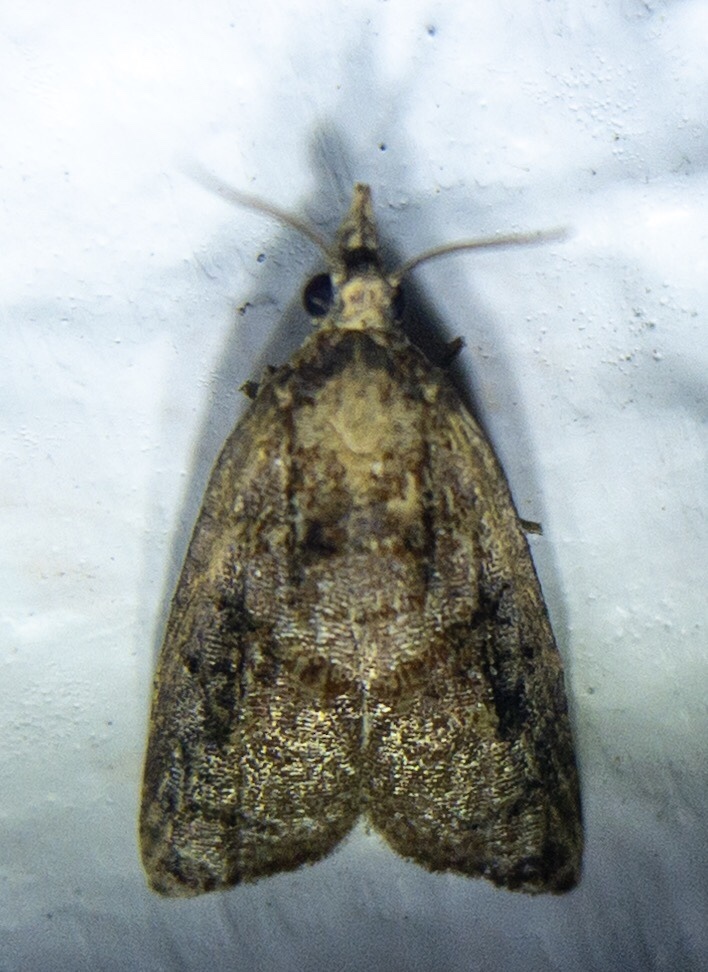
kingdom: Animalia
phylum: Arthropoda
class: Insecta
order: Lepidoptera
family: Tortricidae
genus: Platynota
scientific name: Platynota rostrana
